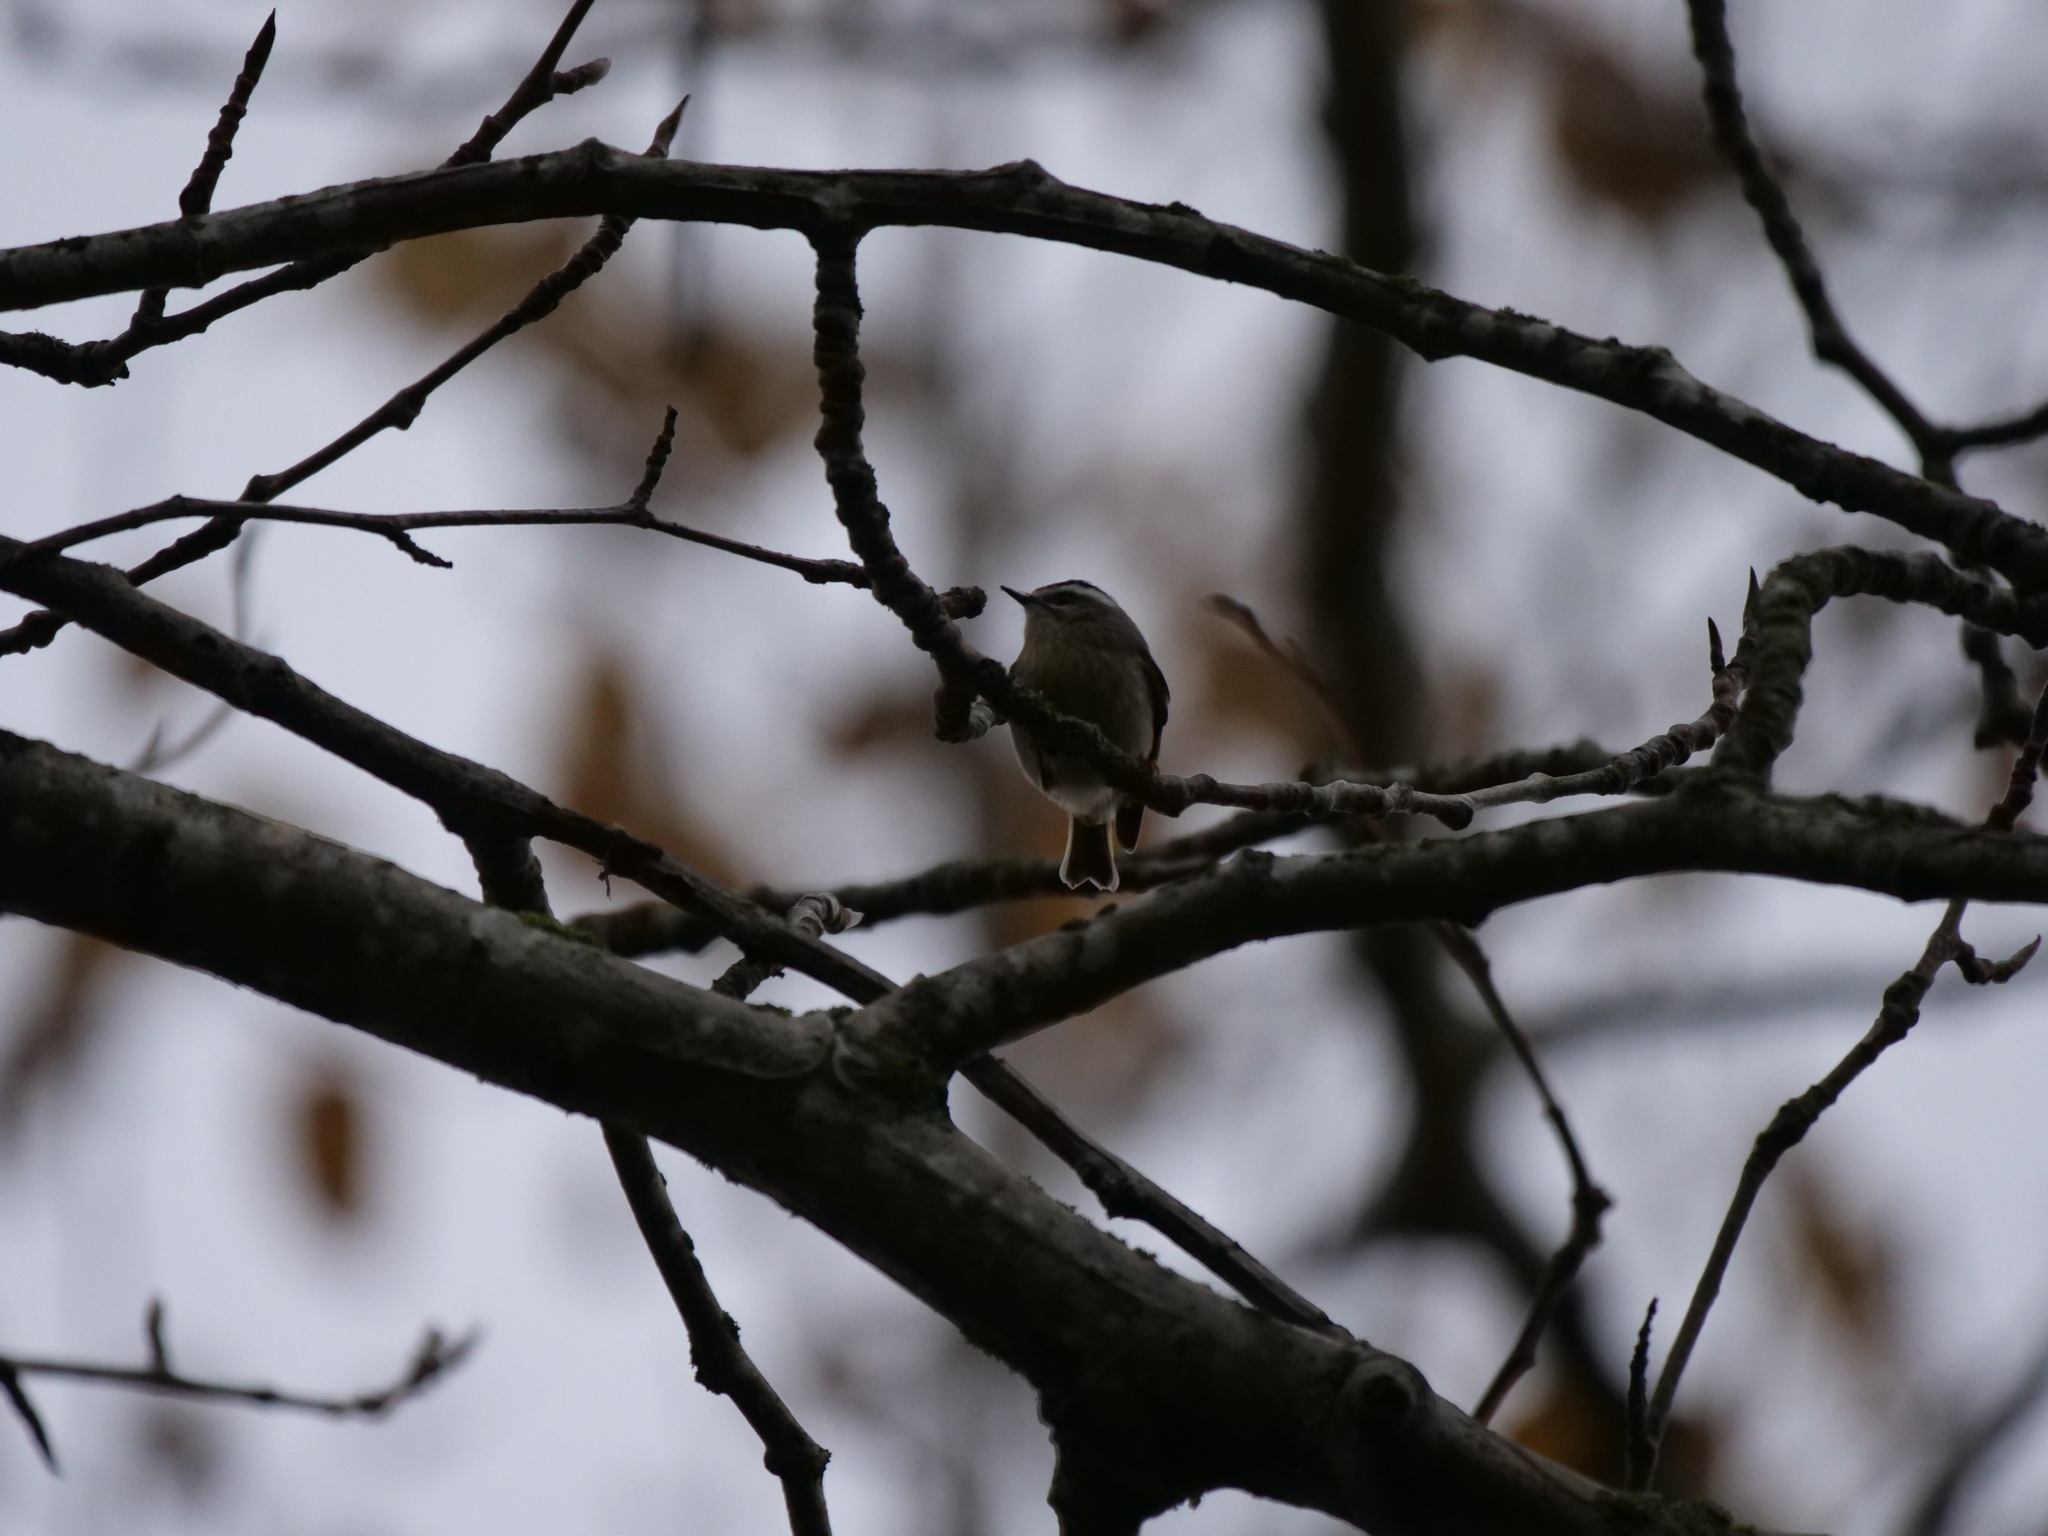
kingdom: Animalia
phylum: Chordata
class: Aves
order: Passeriformes
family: Regulidae
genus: Regulus
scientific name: Regulus satrapa
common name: Golden-crowned kinglet
